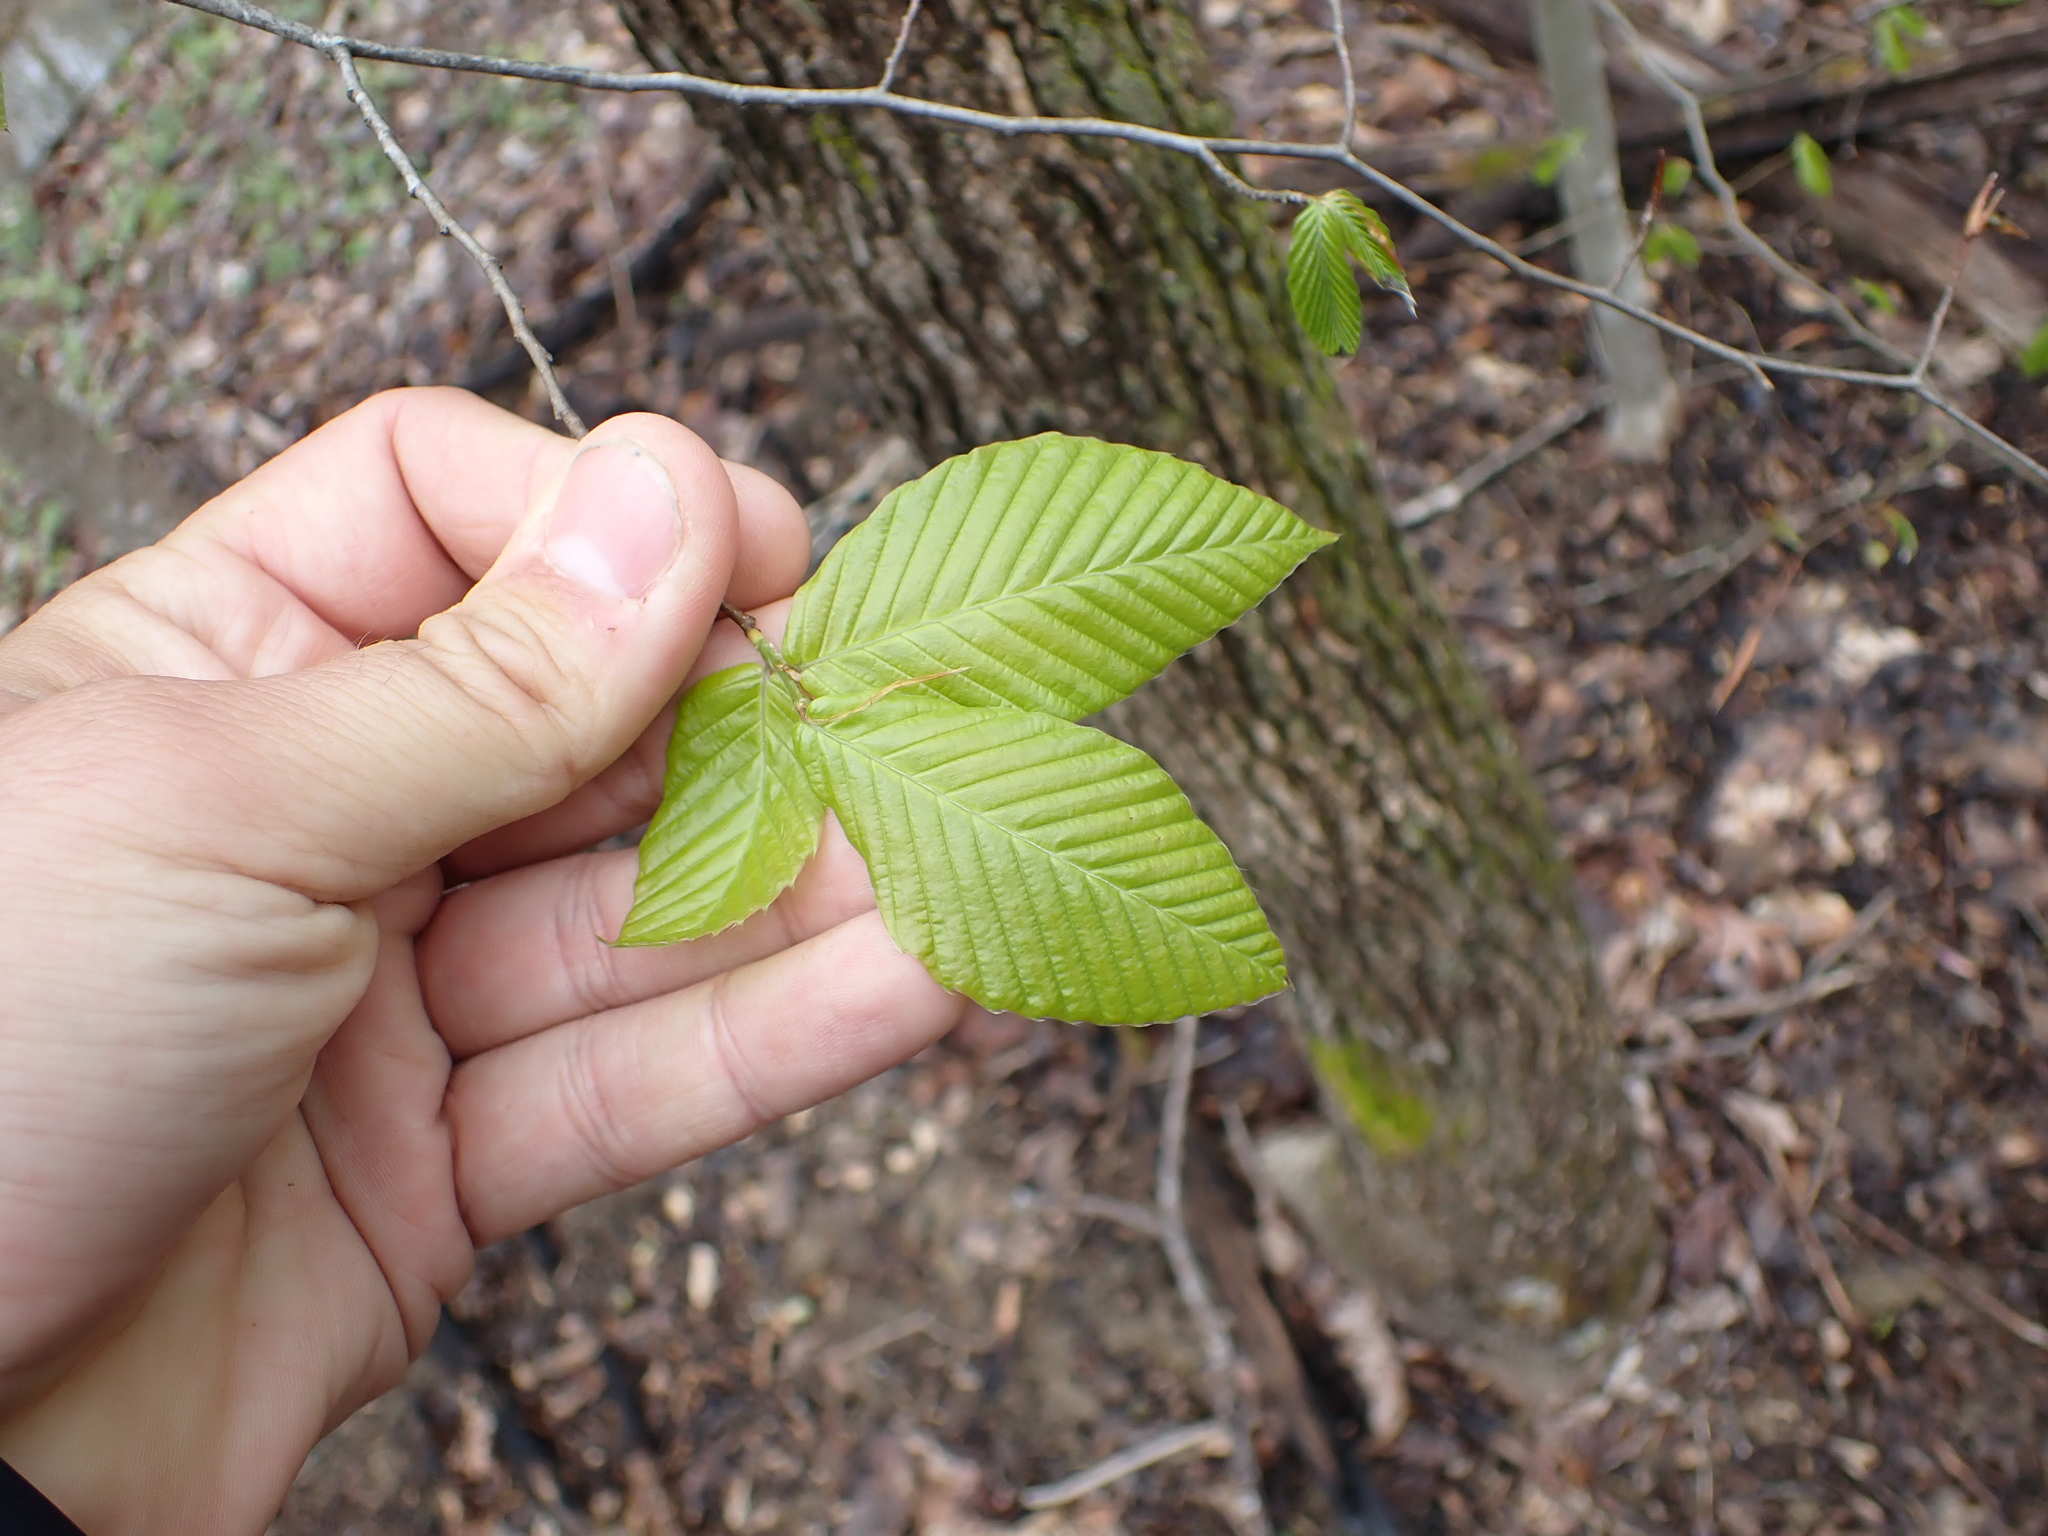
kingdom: Plantae
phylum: Tracheophyta
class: Magnoliopsida
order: Fagales
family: Fagaceae
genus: Fagus
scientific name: Fagus grandifolia
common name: American beech
